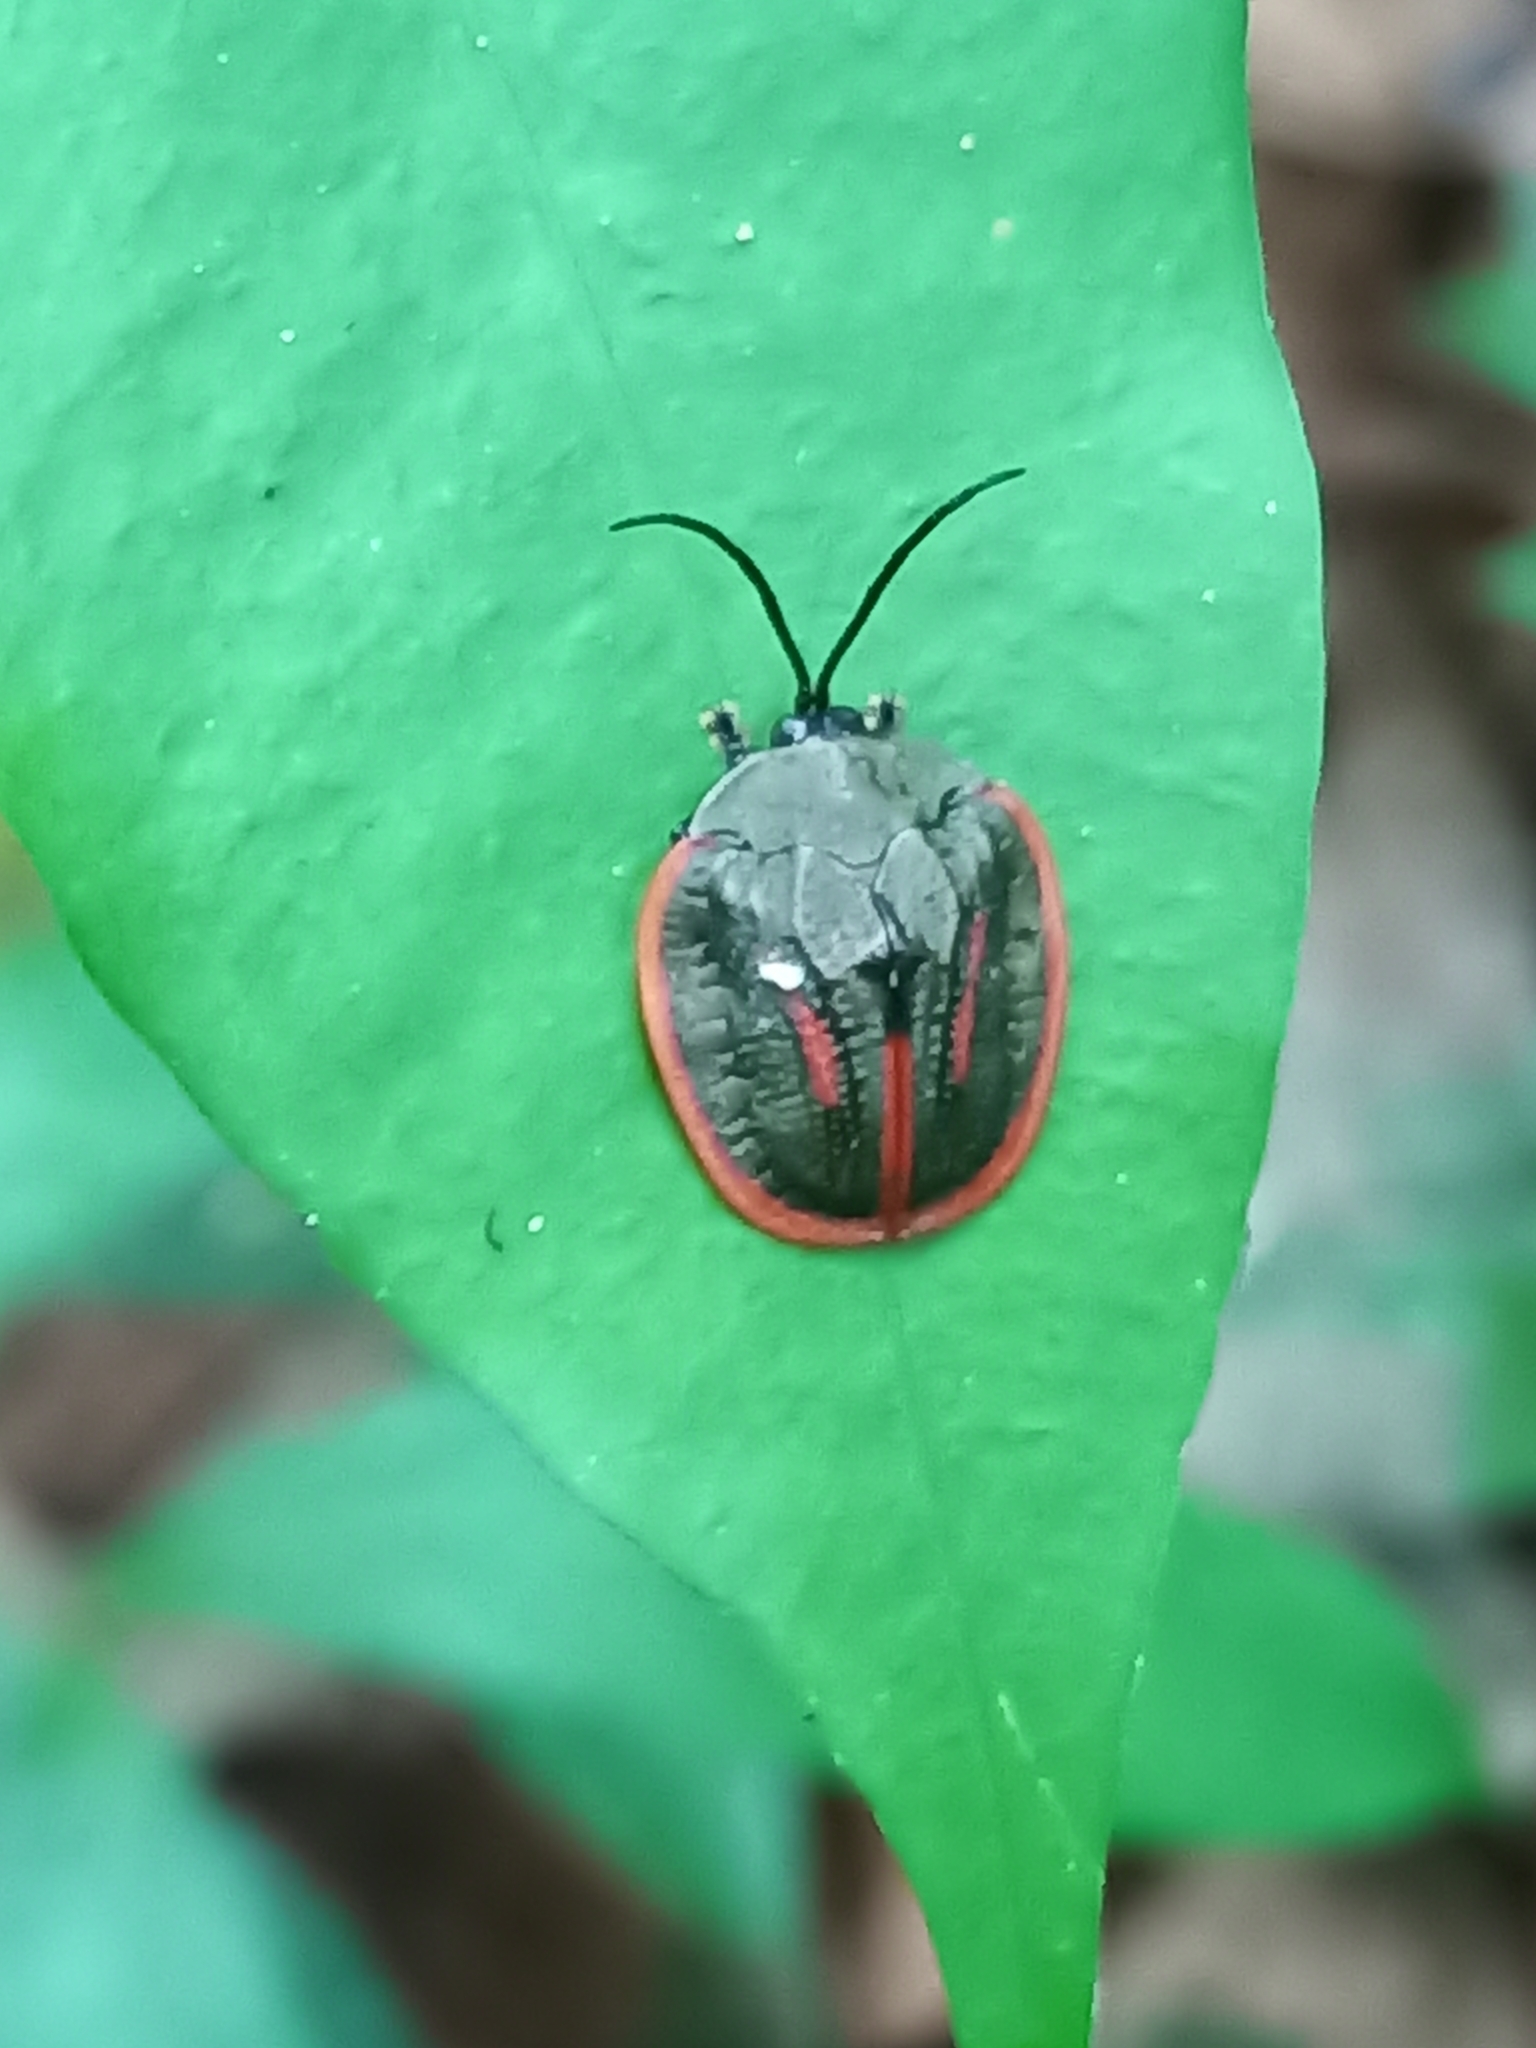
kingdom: Animalia
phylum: Arthropoda
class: Insecta
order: Coleoptera
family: Chrysomelidae
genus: Cyclosoma
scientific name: Cyclosoma palliata
